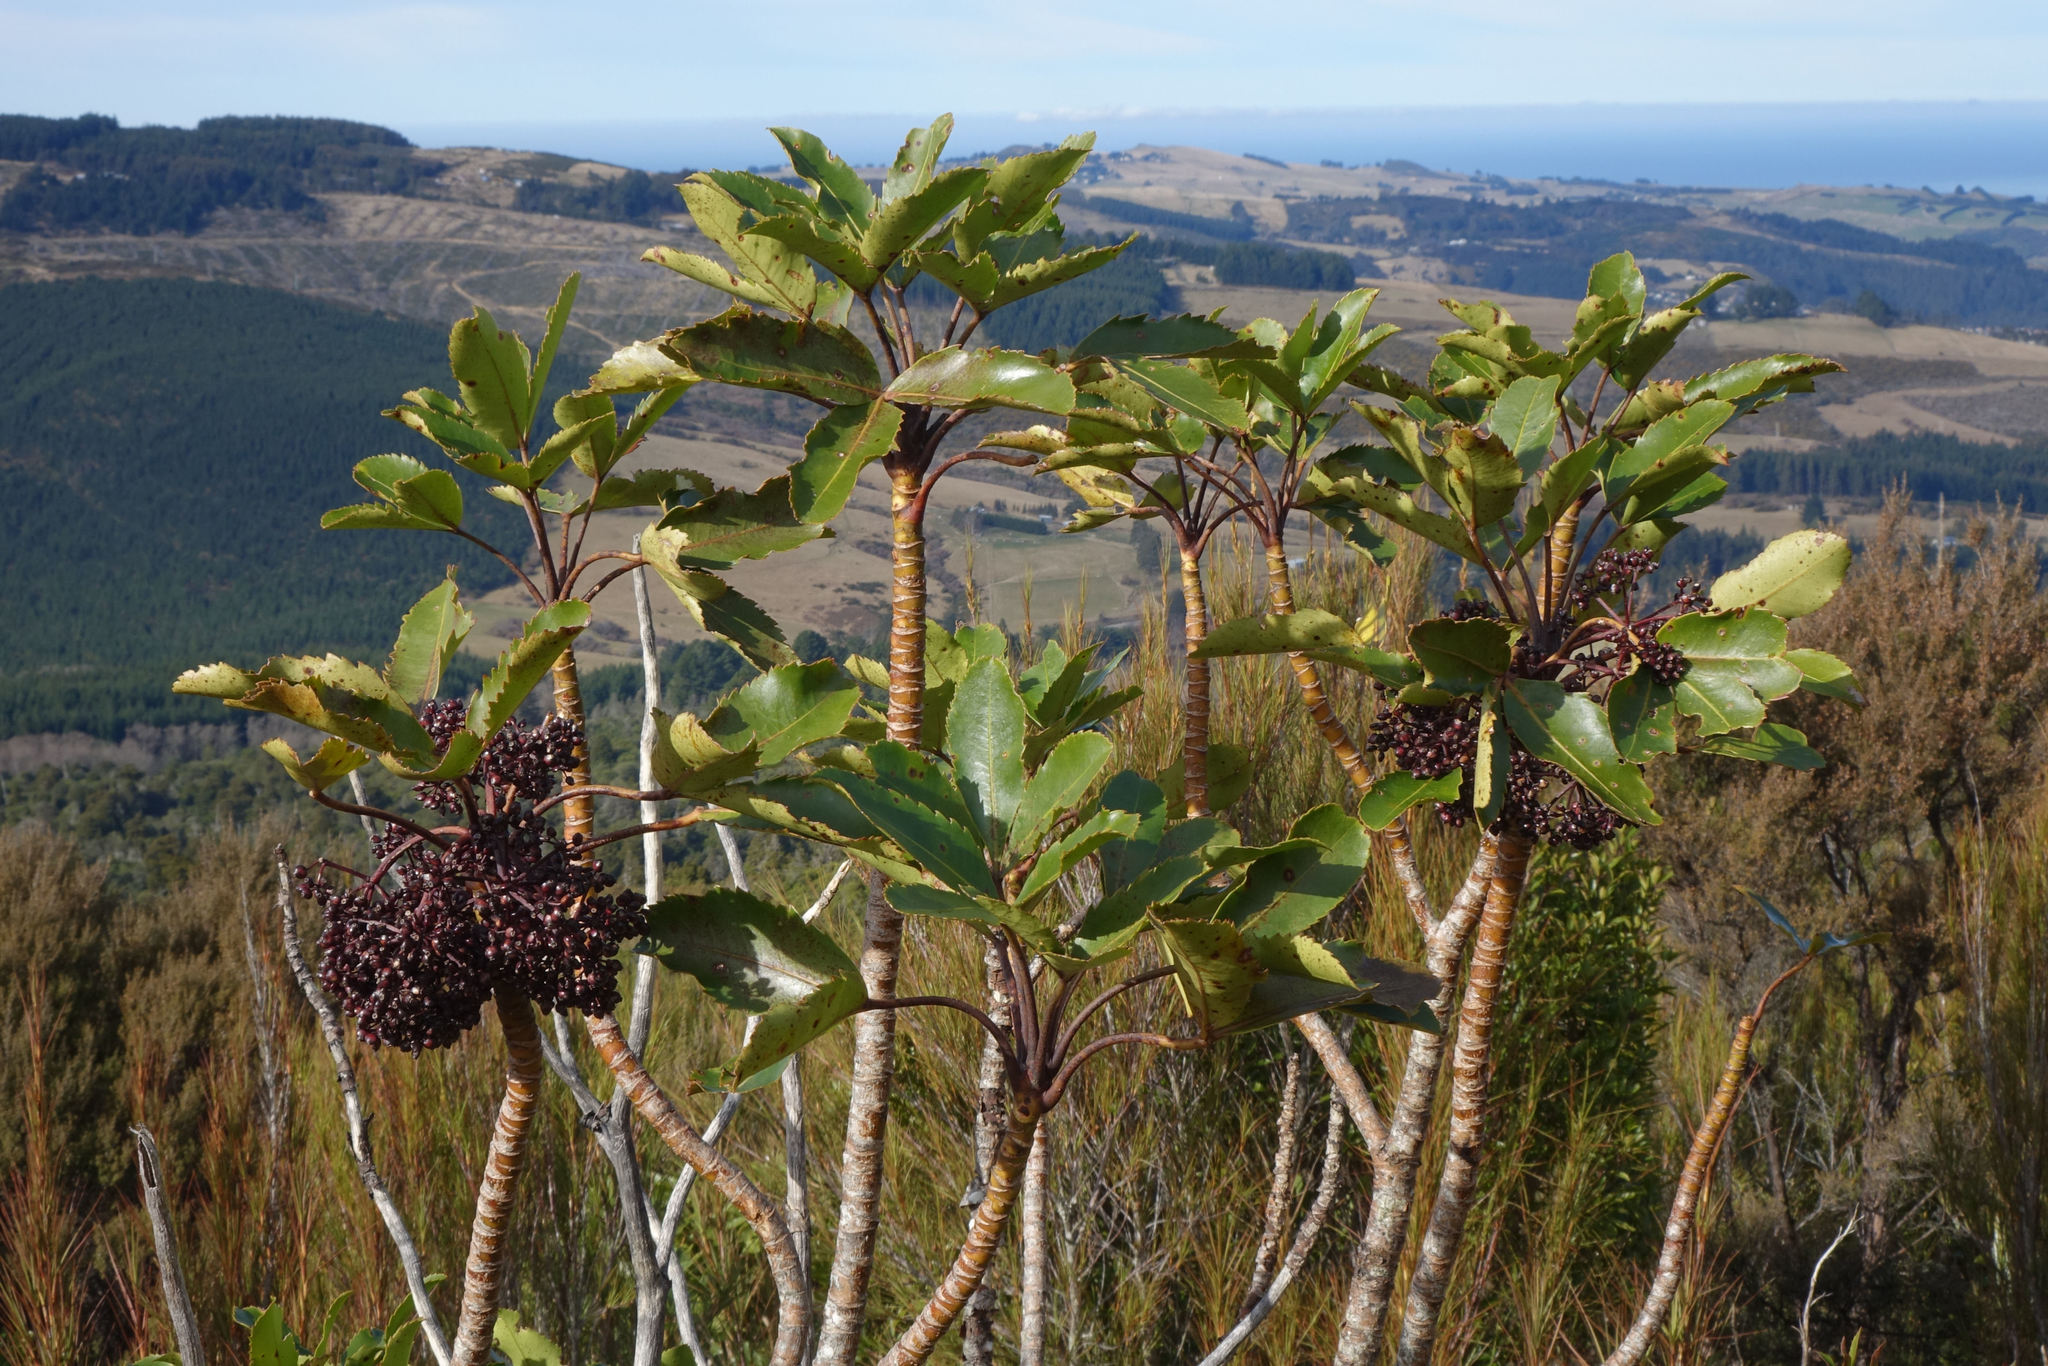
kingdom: Plantae
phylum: Tracheophyta
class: Magnoliopsida
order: Apiales
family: Araliaceae
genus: Neopanax
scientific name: Neopanax colensoi
